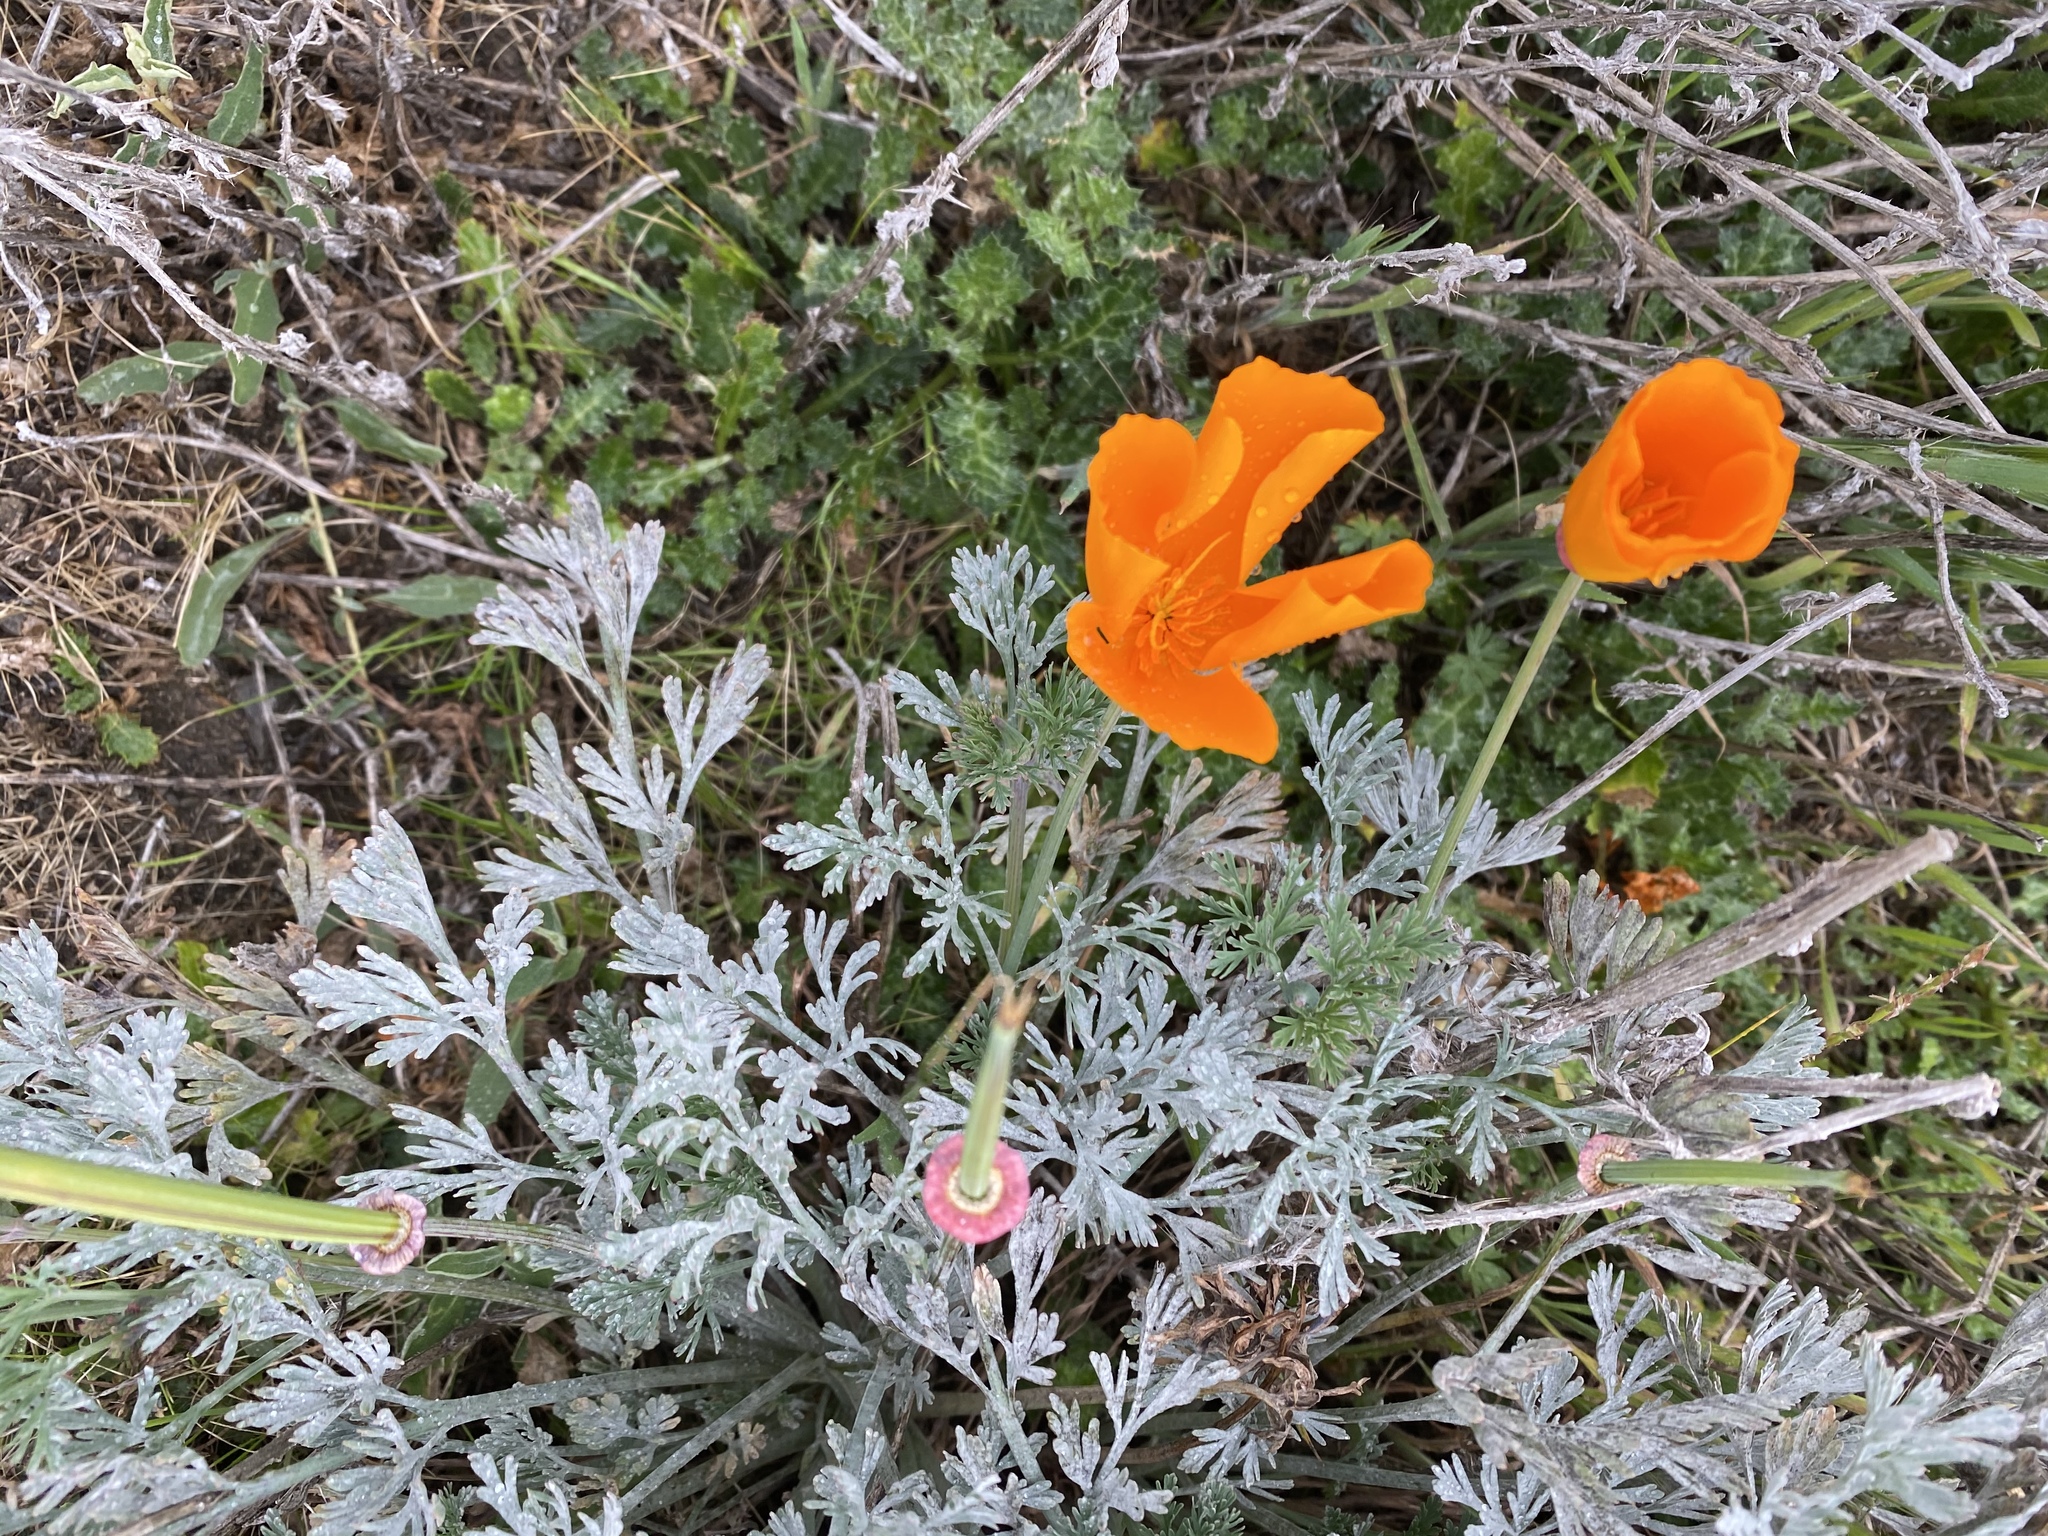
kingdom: Plantae
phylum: Tracheophyta
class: Magnoliopsida
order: Ranunculales
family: Papaveraceae
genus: Eschscholzia
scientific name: Eschscholzia californica
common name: California poppy
